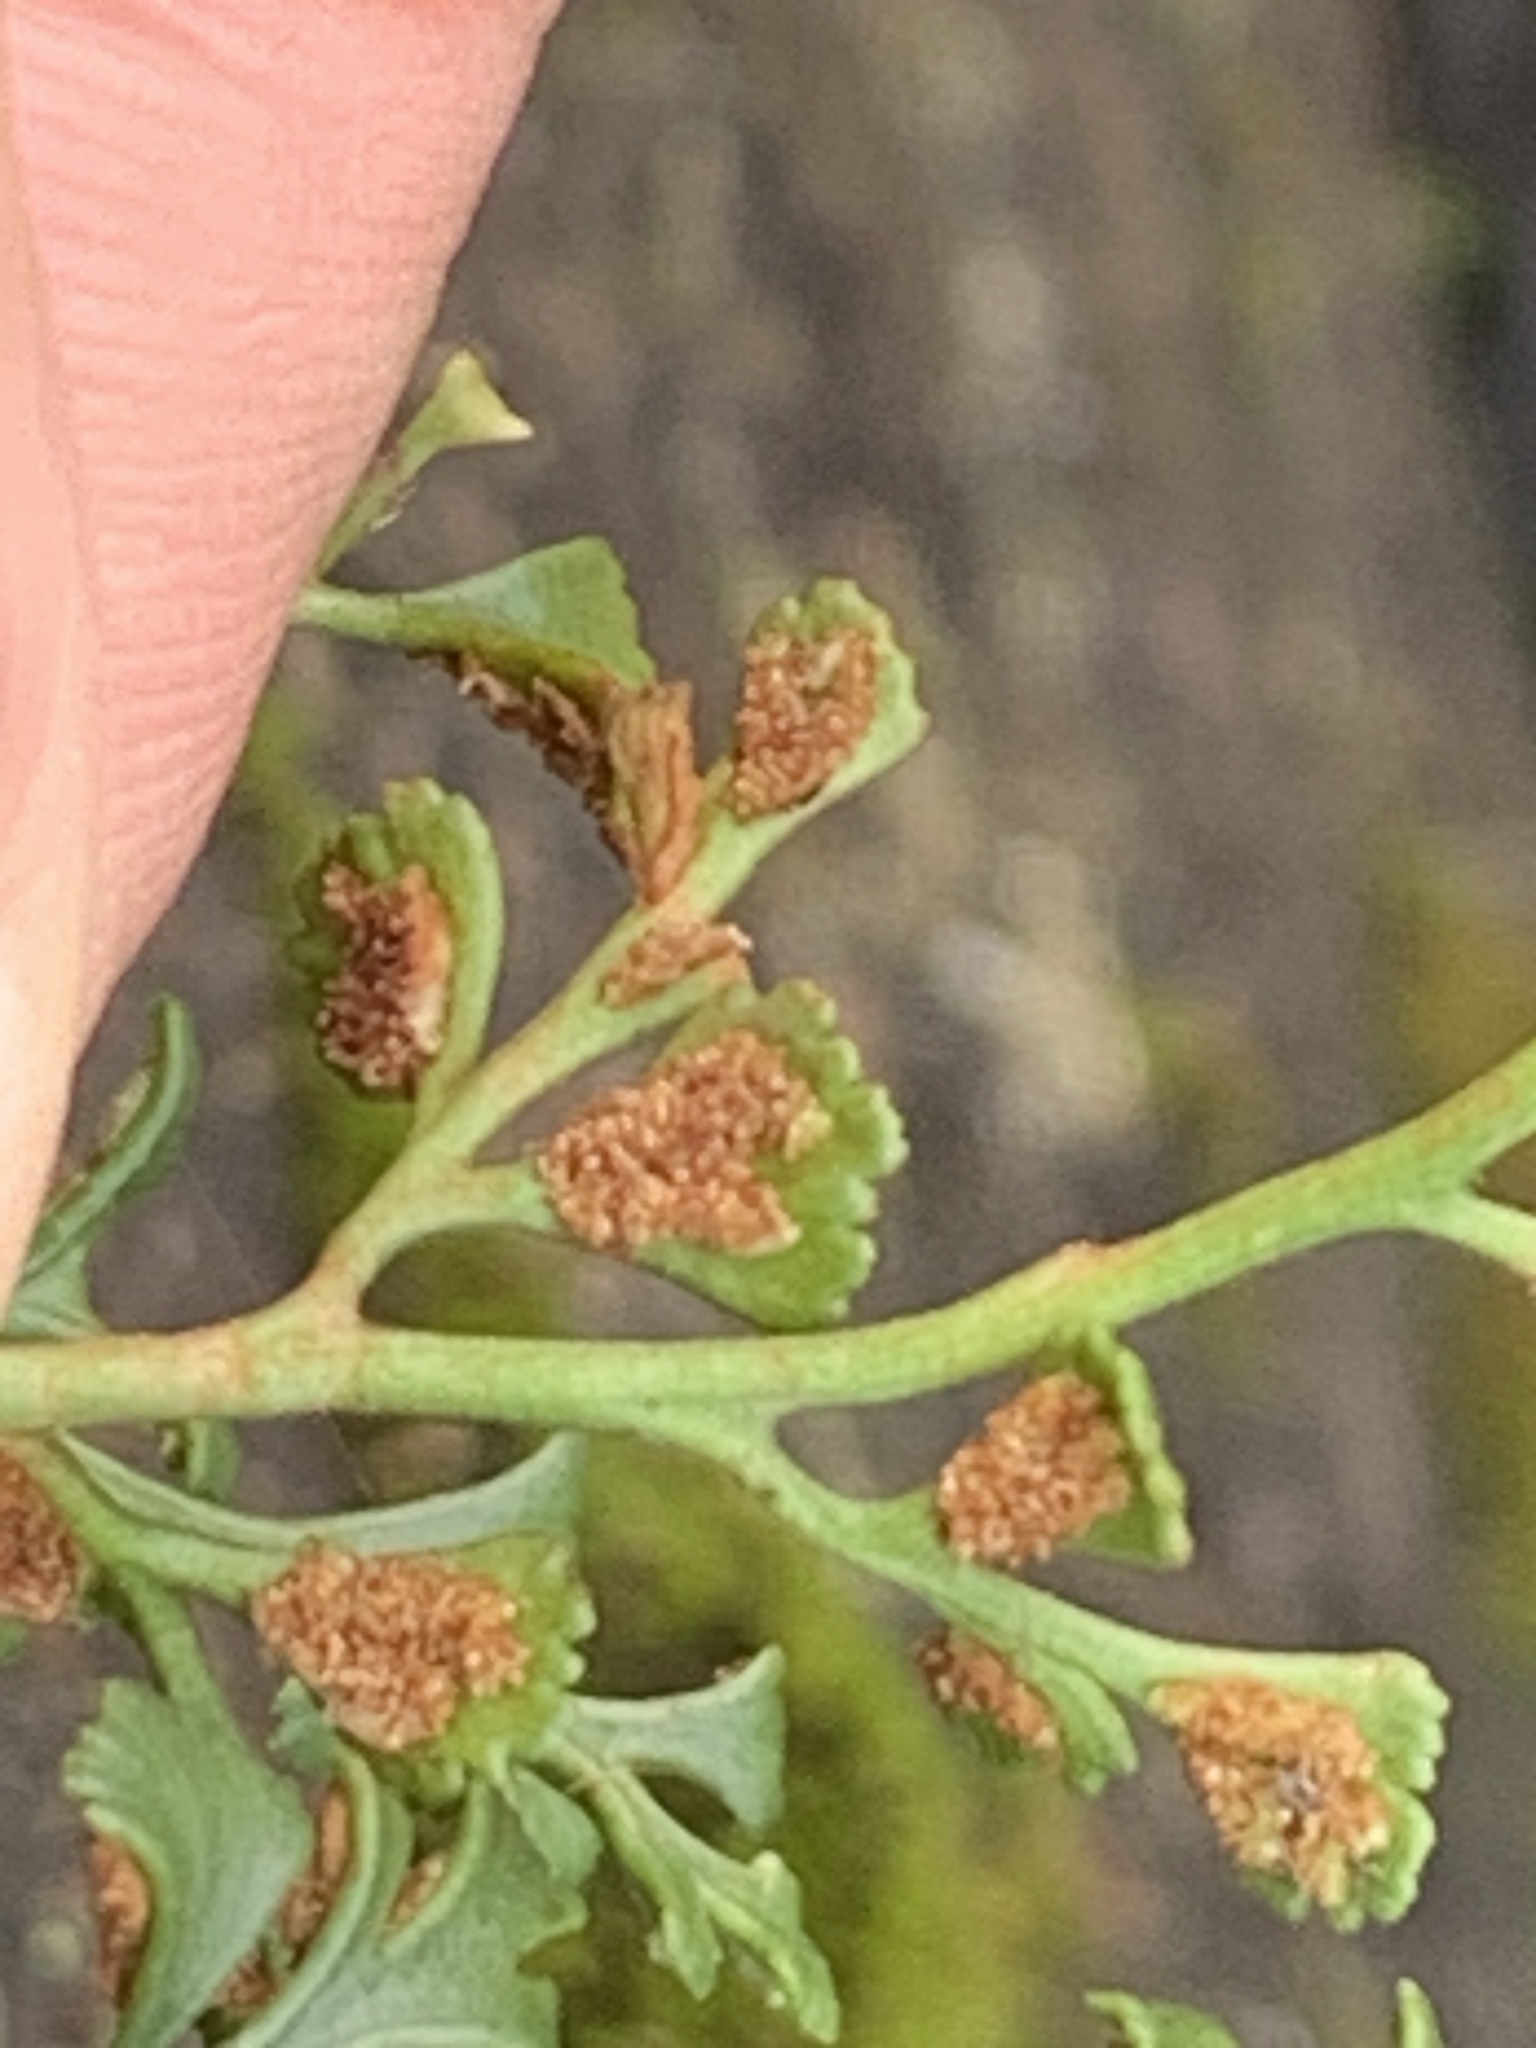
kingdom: Plantae
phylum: Tracheophyta
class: Polypodiopsida
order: Polypodiales
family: Aspleniaceae
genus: Asplenium
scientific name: Asplenium ruta-muraria
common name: Wall-rue
